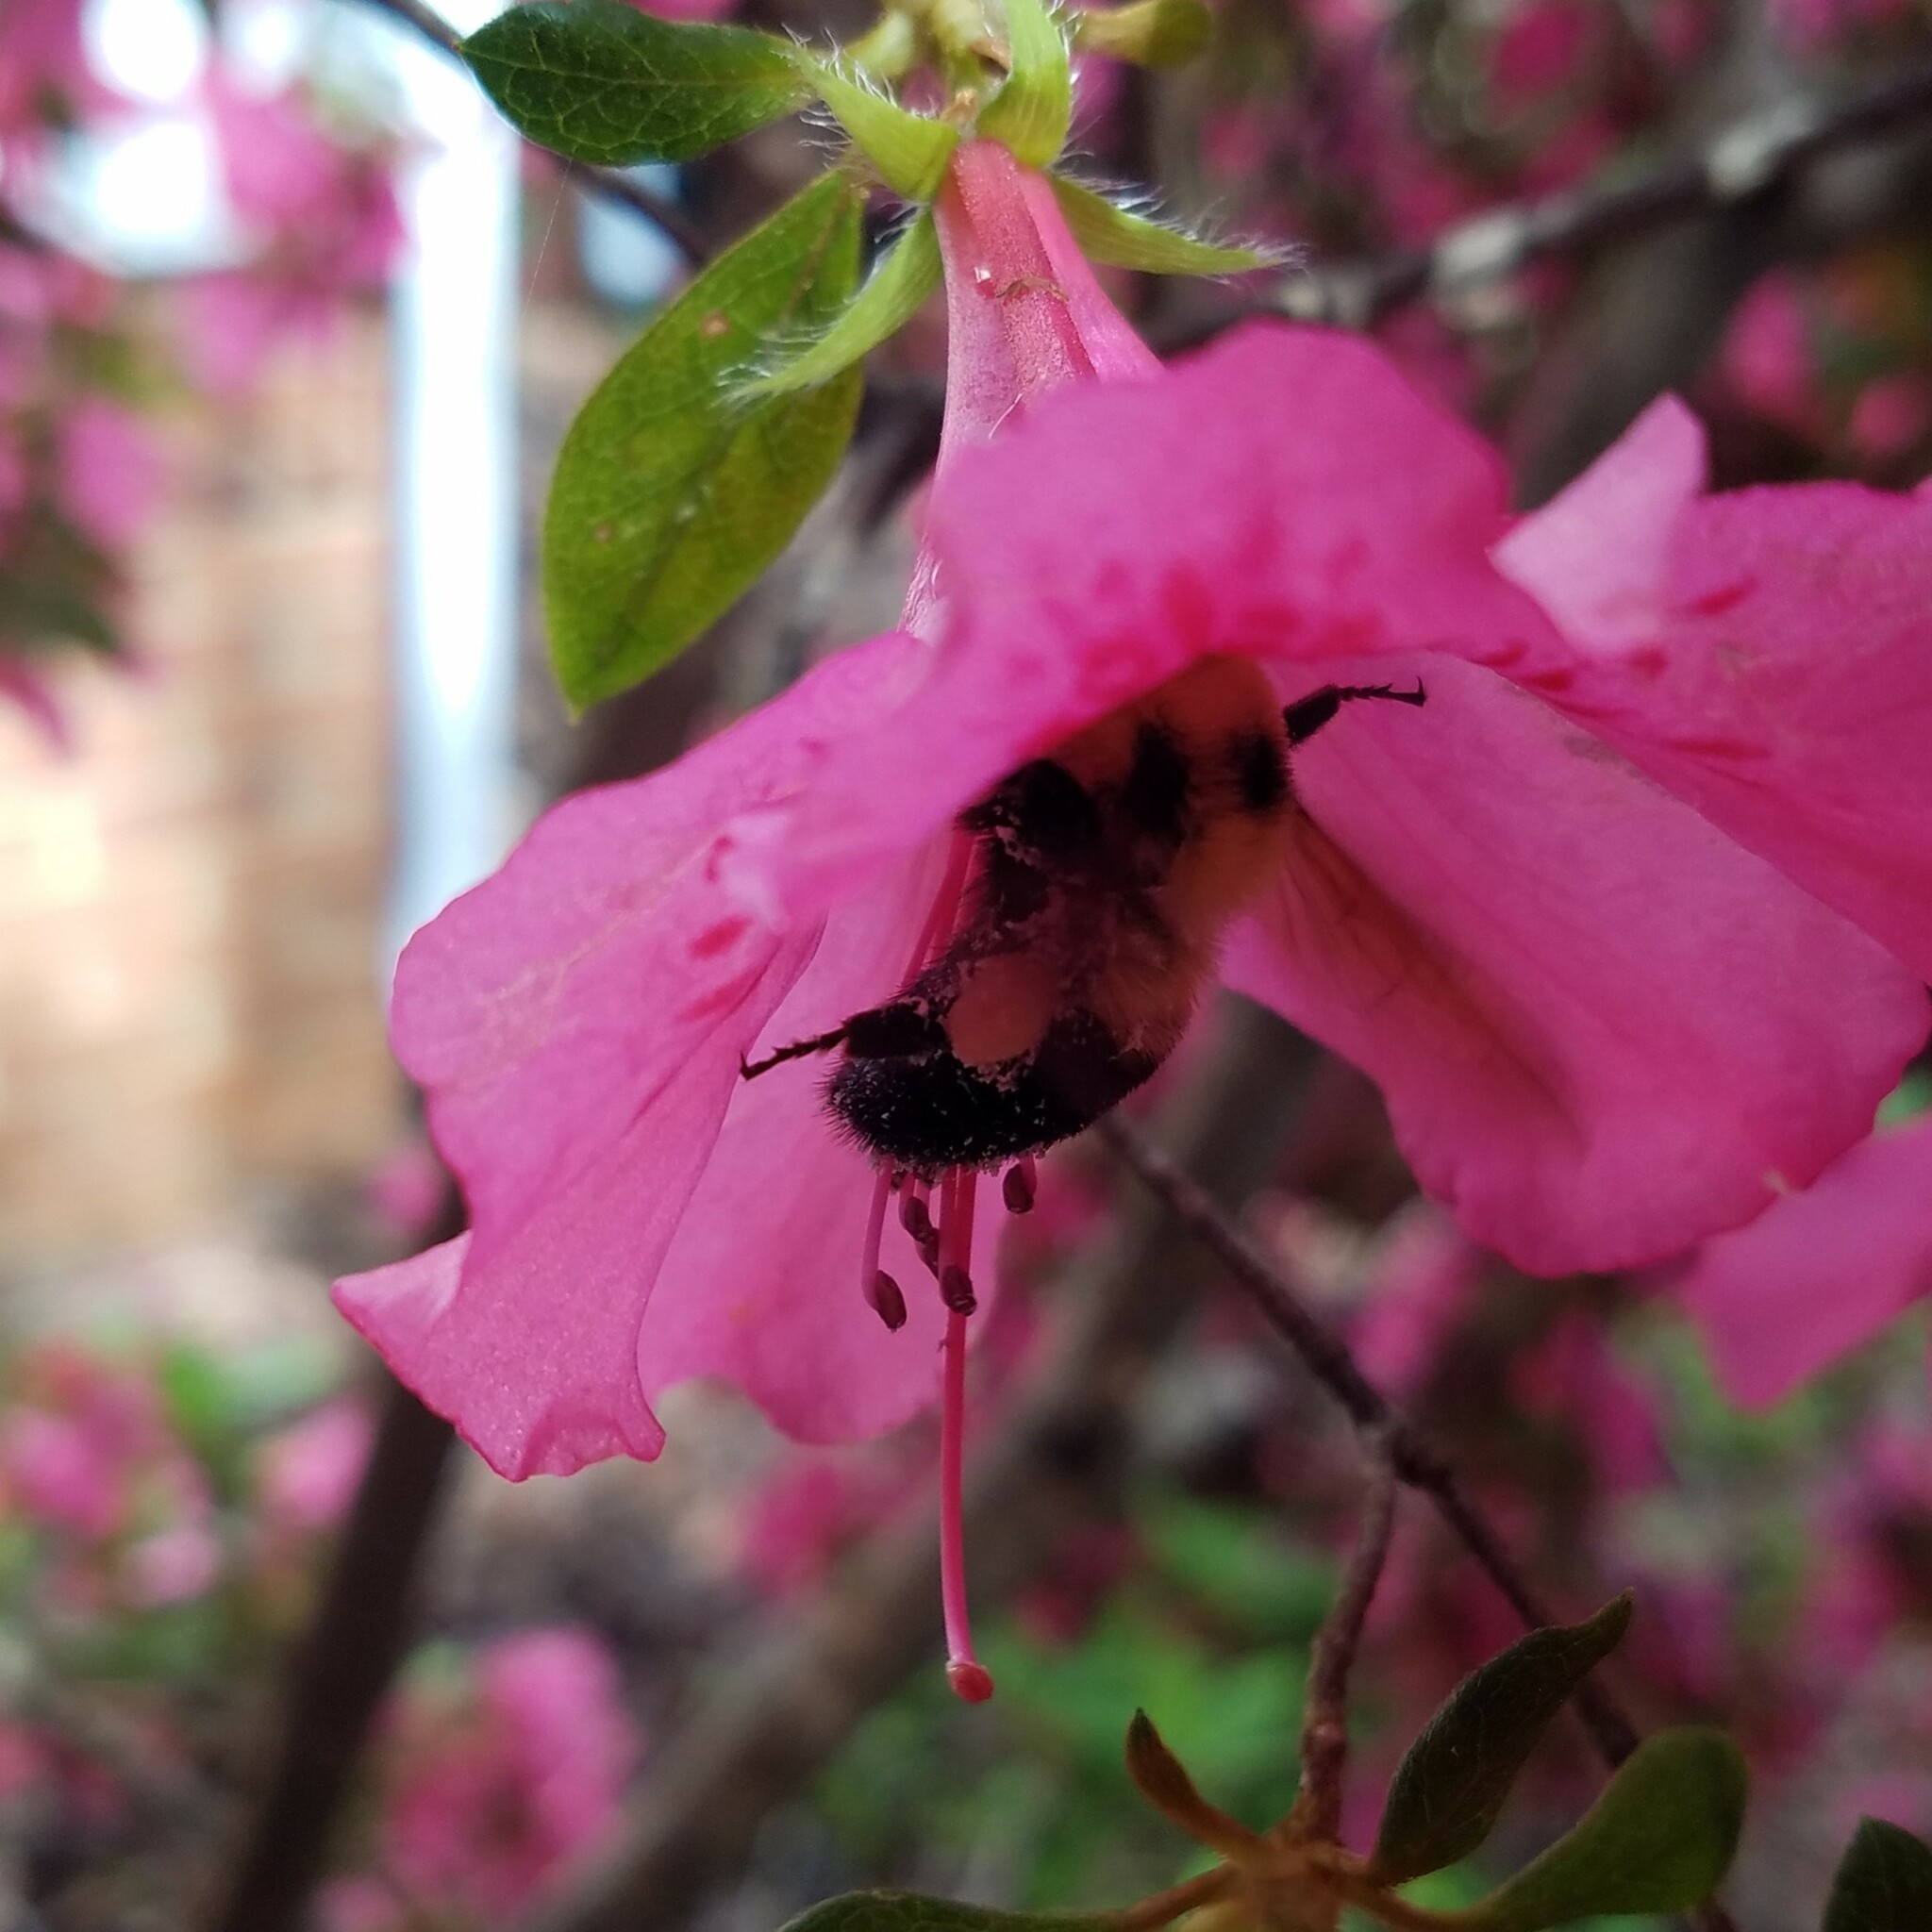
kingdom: Animalia
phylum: Arthropoda
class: Insecta
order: Hymenoptera
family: Apidae
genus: Bombus
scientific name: Bombus bimaculatus
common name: Two-spotted bumble bee
